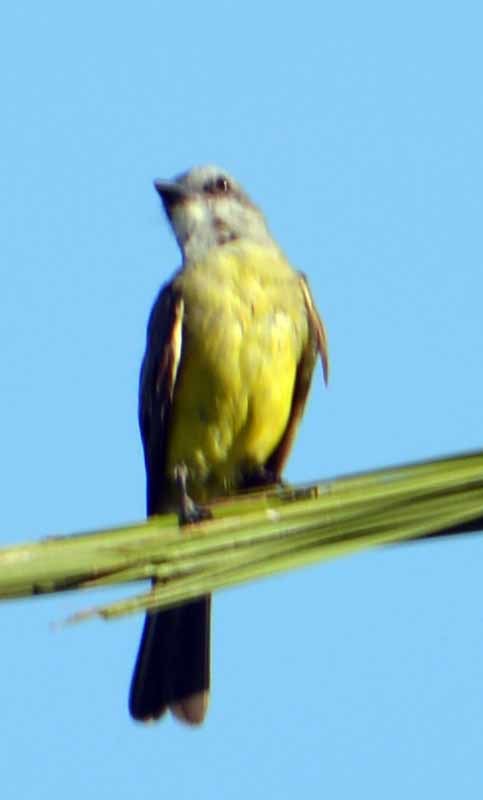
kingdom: Animalia
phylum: Chordata
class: Aves
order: Passeriformes
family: Tyrannidae
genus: Tyrannus
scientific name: Tyrannus melancholicus
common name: Tropical kingbird
